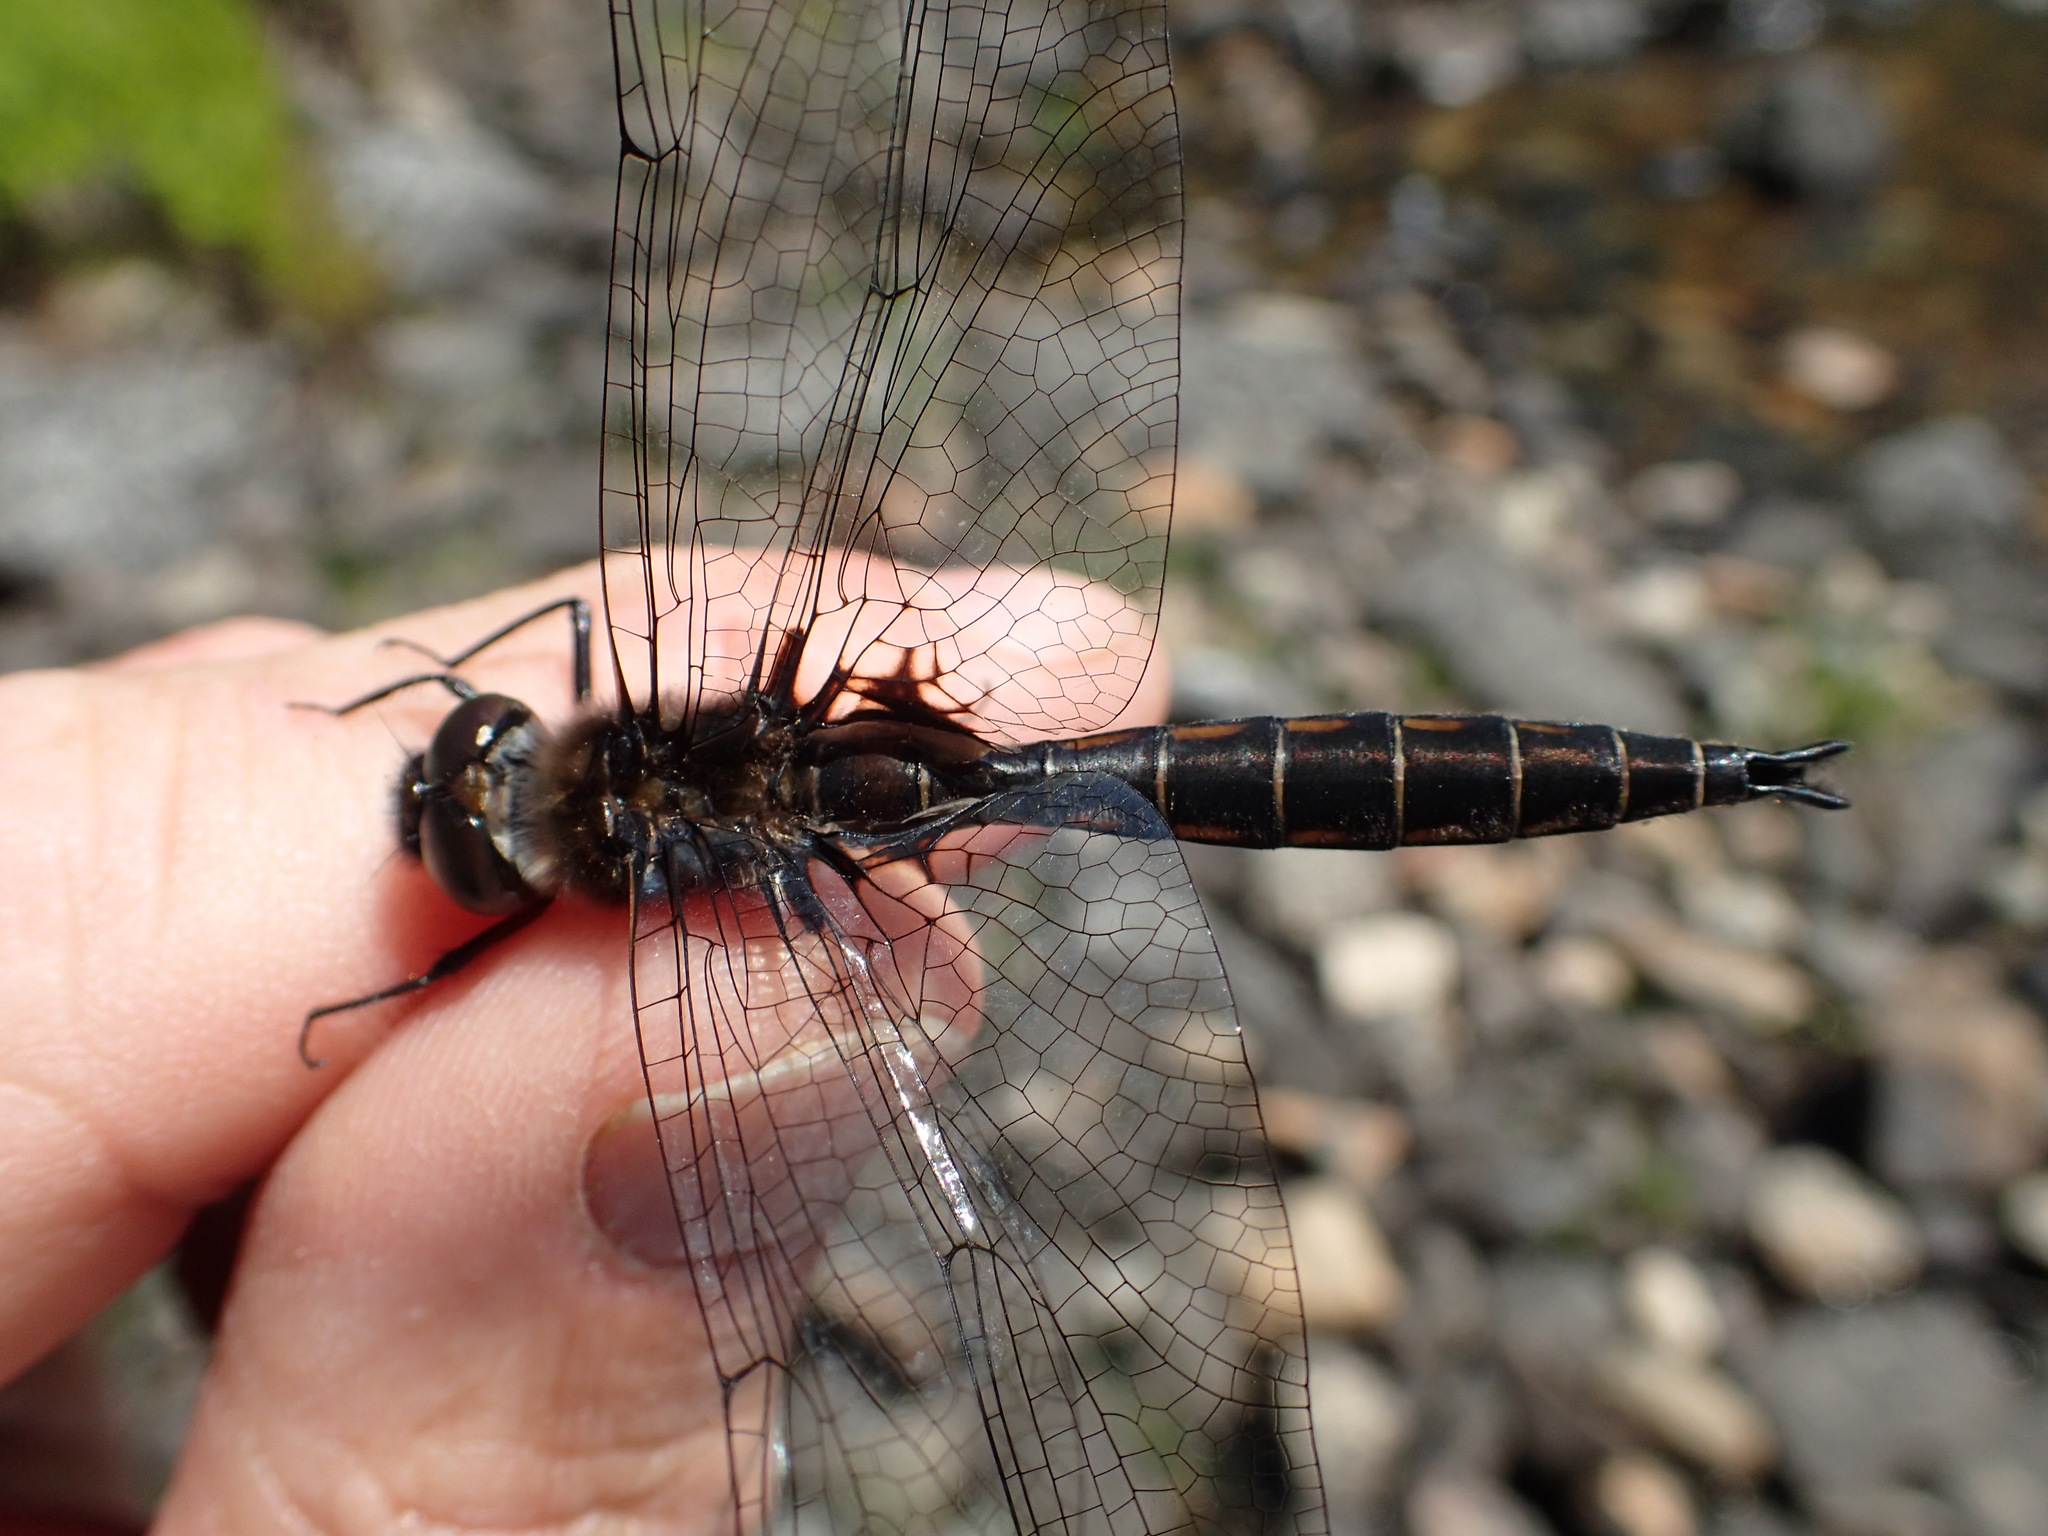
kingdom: Animalia
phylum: Arthropoda
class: Insecta
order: Odonata
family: Corduliidae
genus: Epitheca
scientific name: Epitheca spinigera
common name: Spiny baskettail
